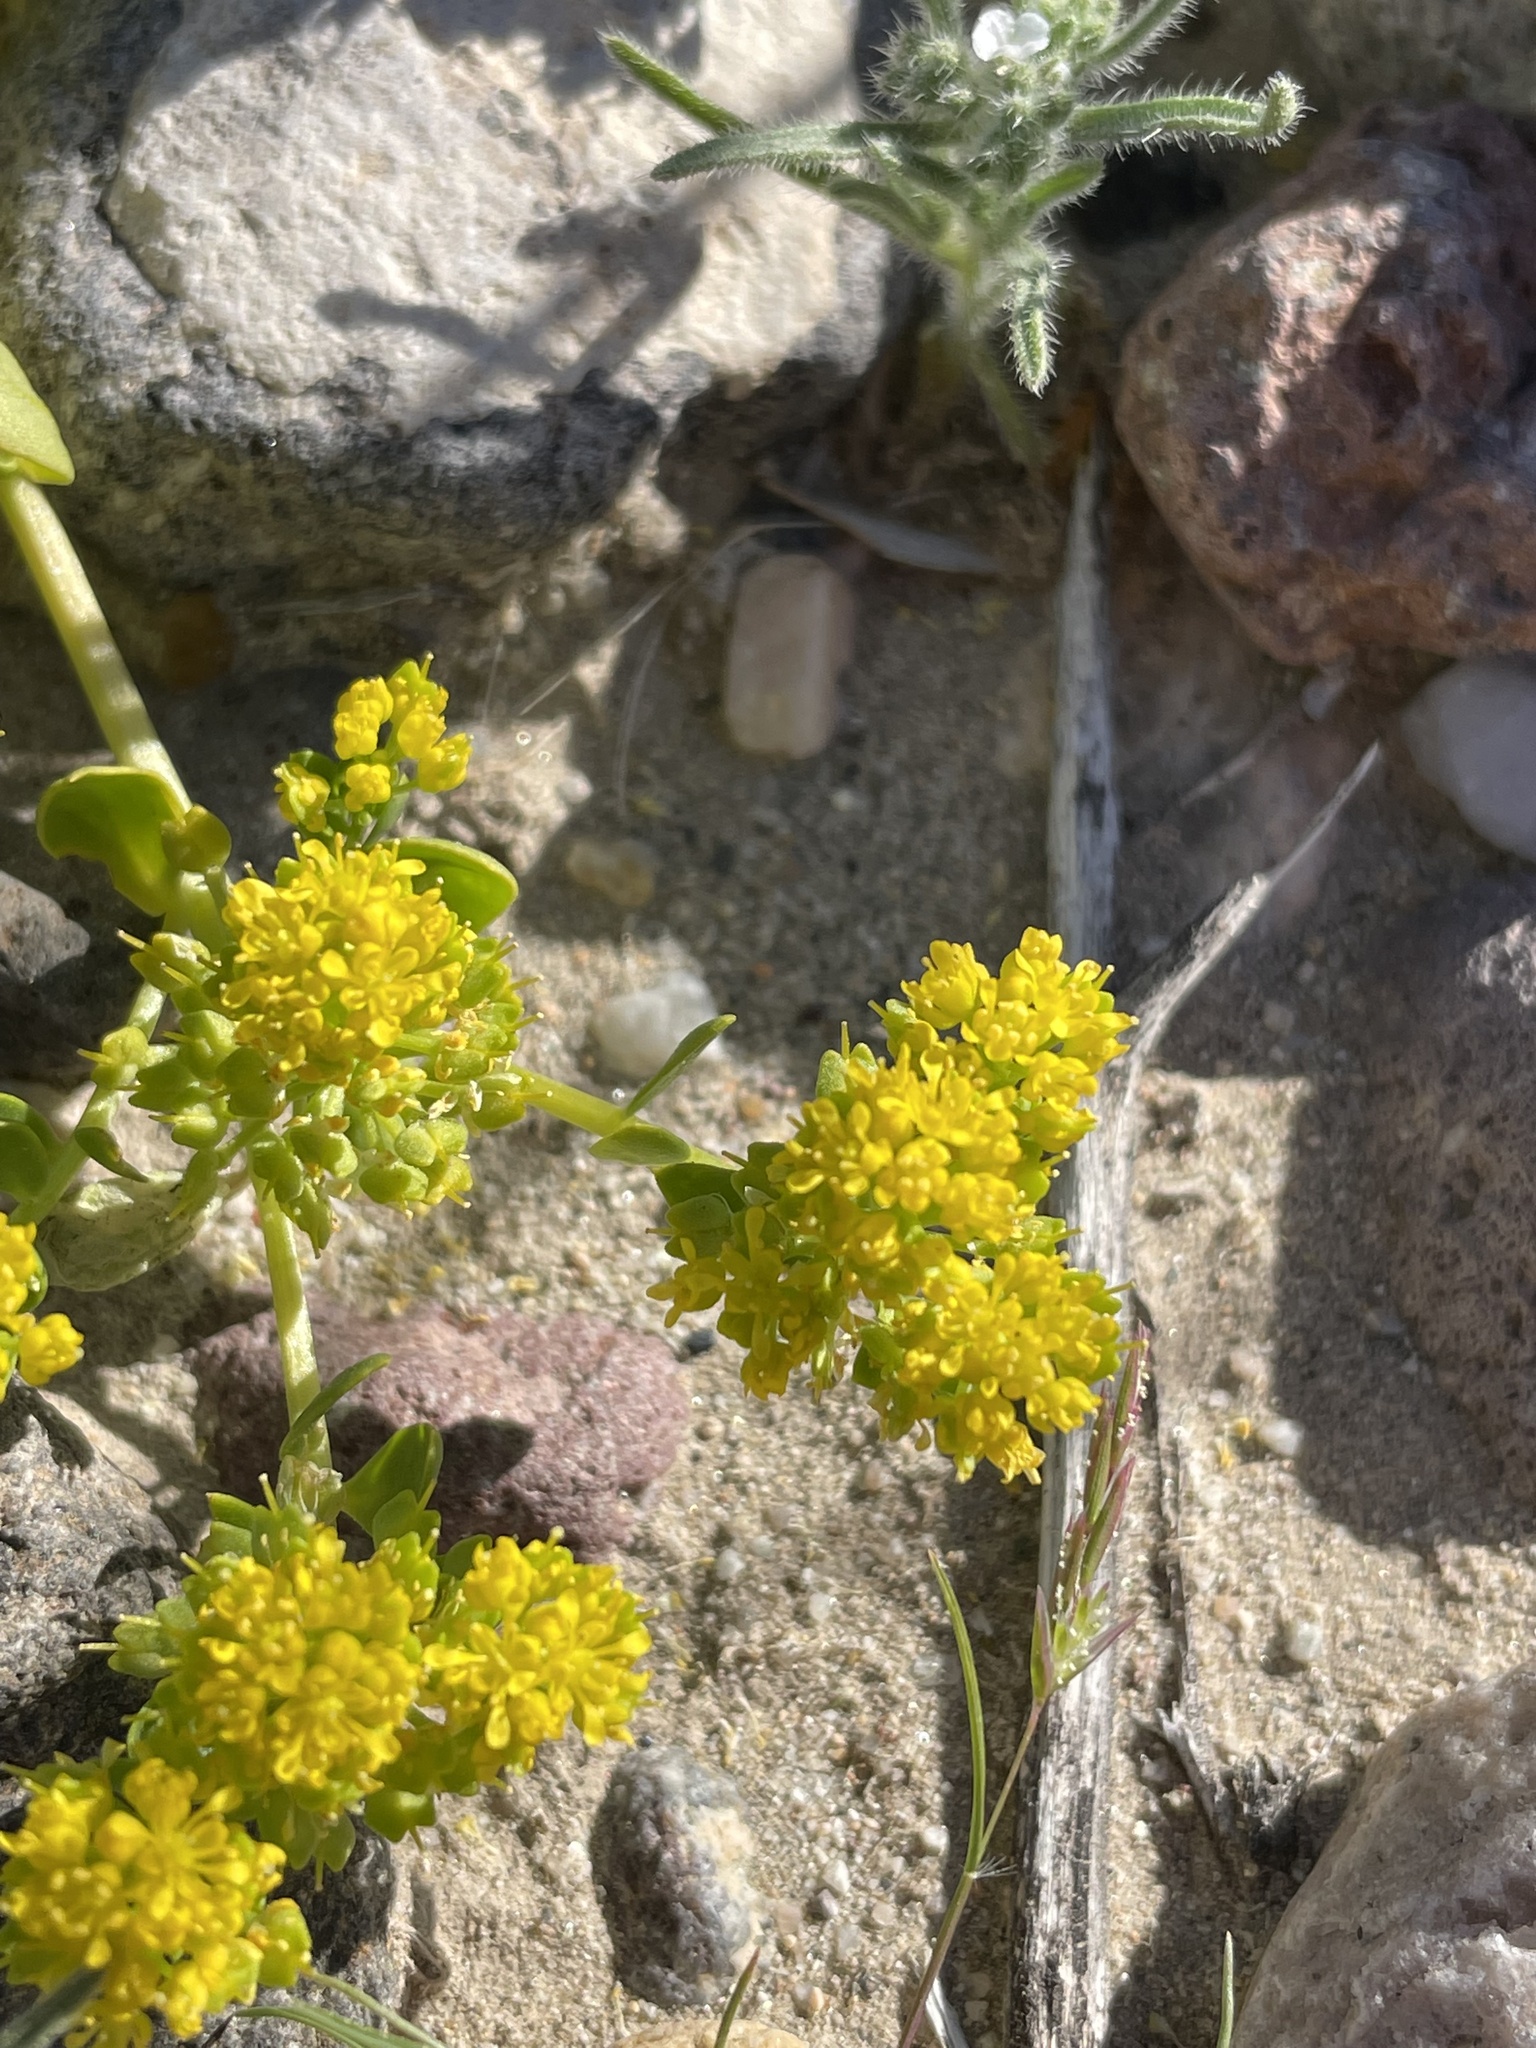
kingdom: Plantae
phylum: Tracheophyta
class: Magnoliopsida
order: Brassicales
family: Brassicaceae
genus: Lepidium
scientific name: Lepidium flavum
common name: Yellow pepperwort
